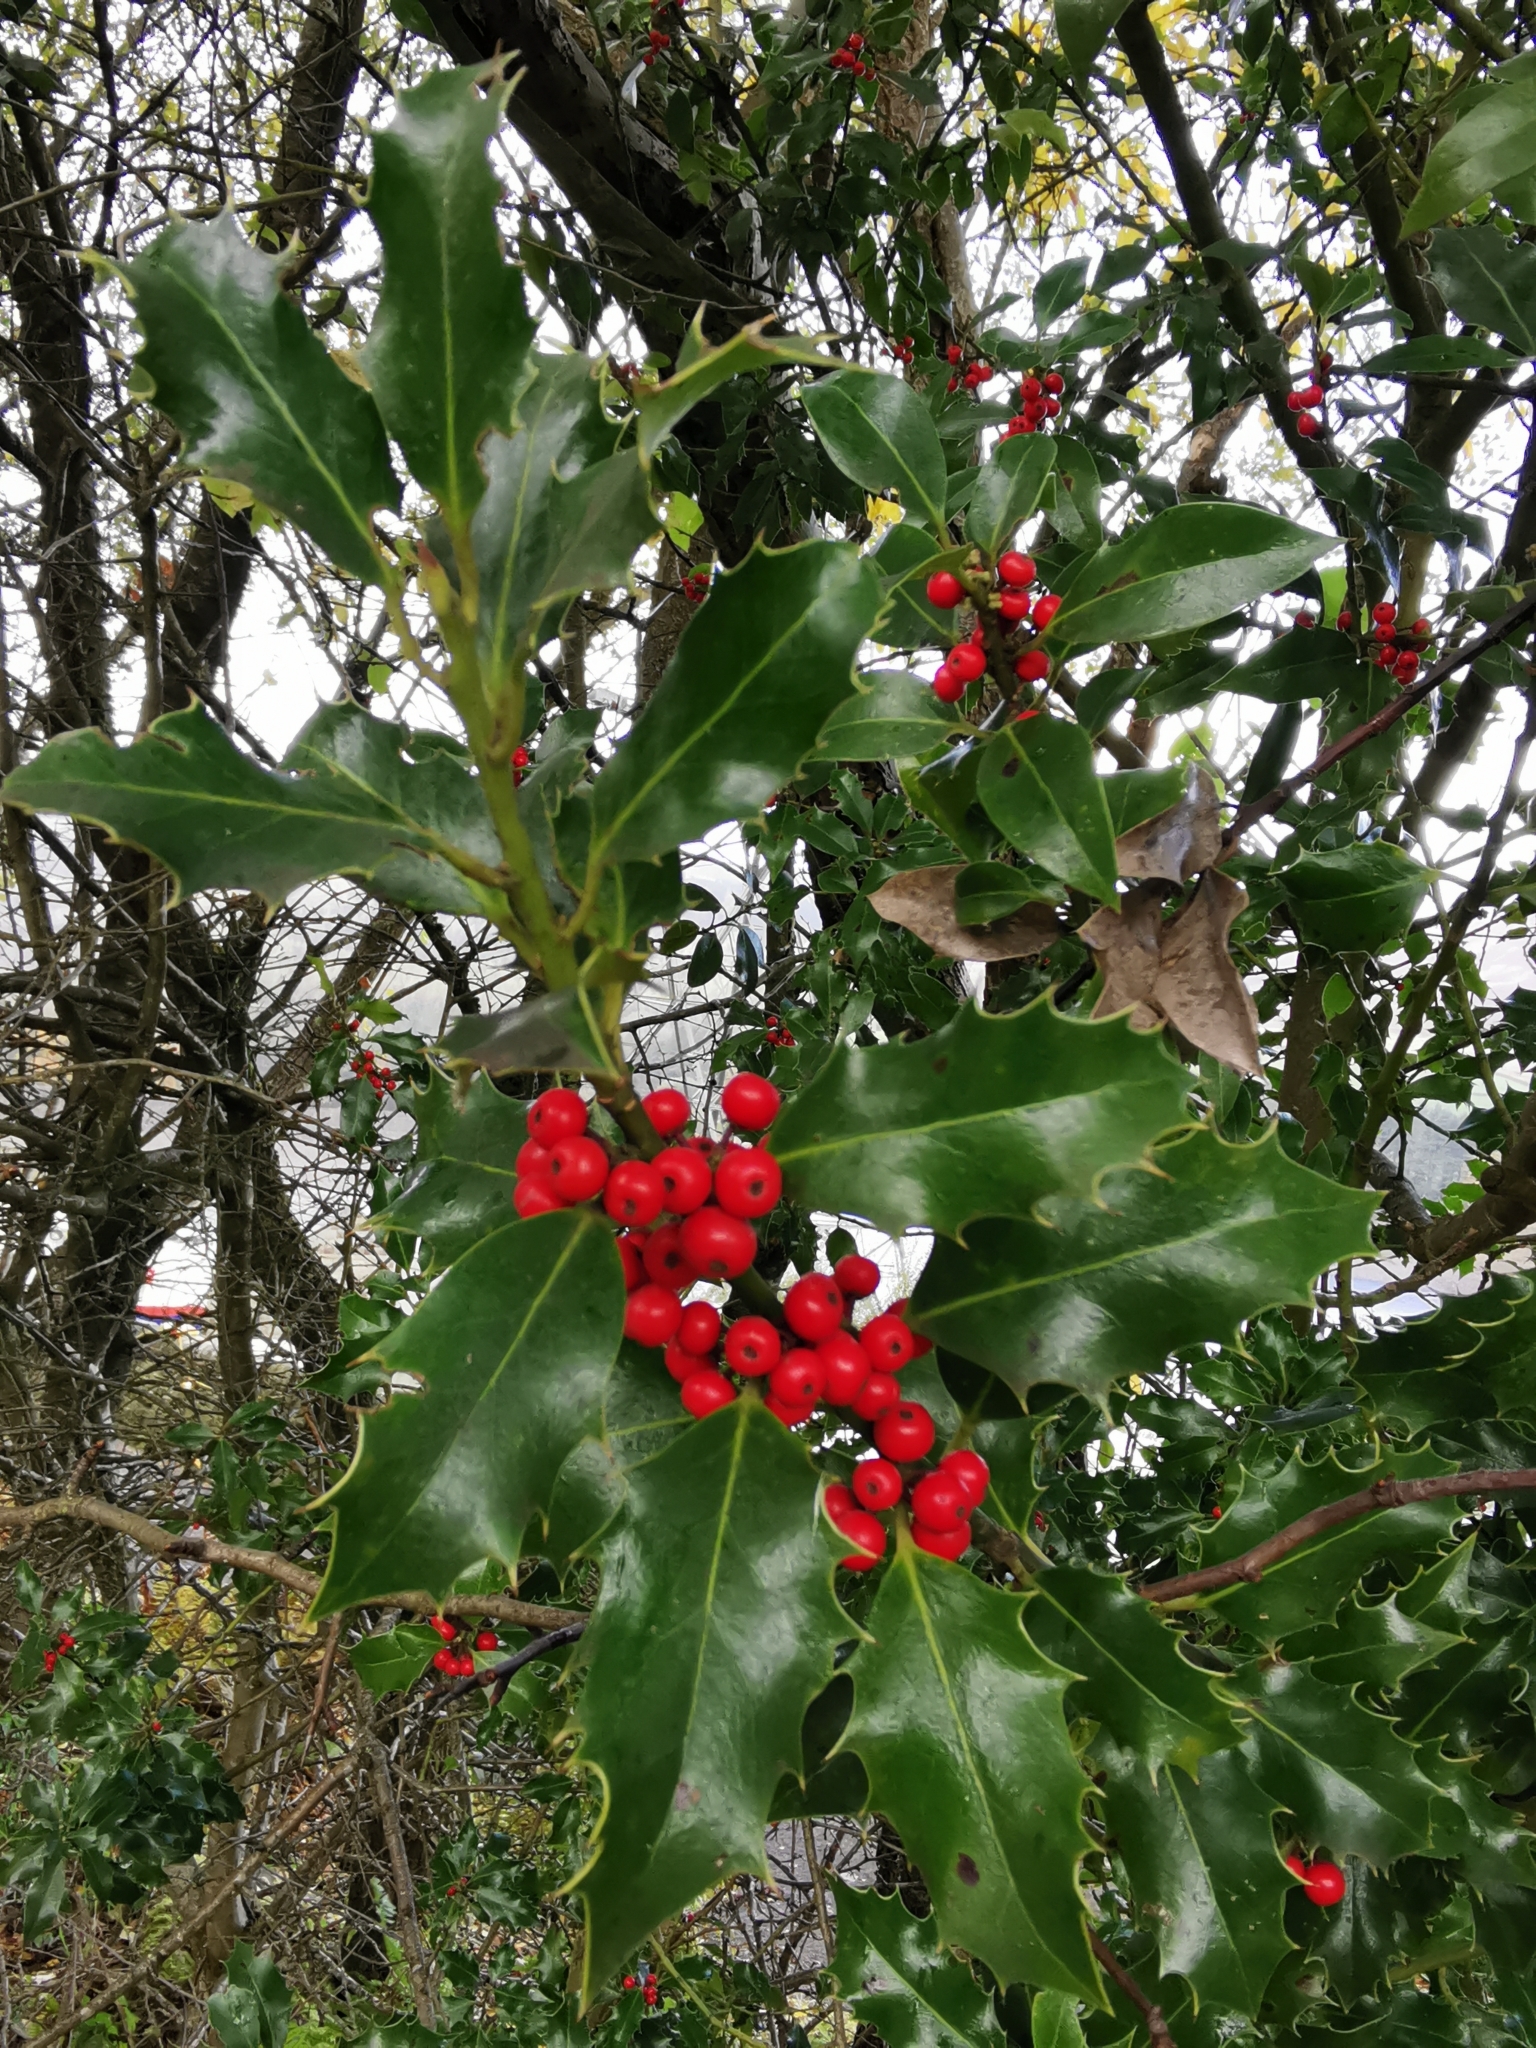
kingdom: Plantae
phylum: Tracheophyta
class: Magnoliopsida
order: Aquifoliales
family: Aquifoliaceae
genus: Ilex
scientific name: Ilex aquifolium
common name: English holly
